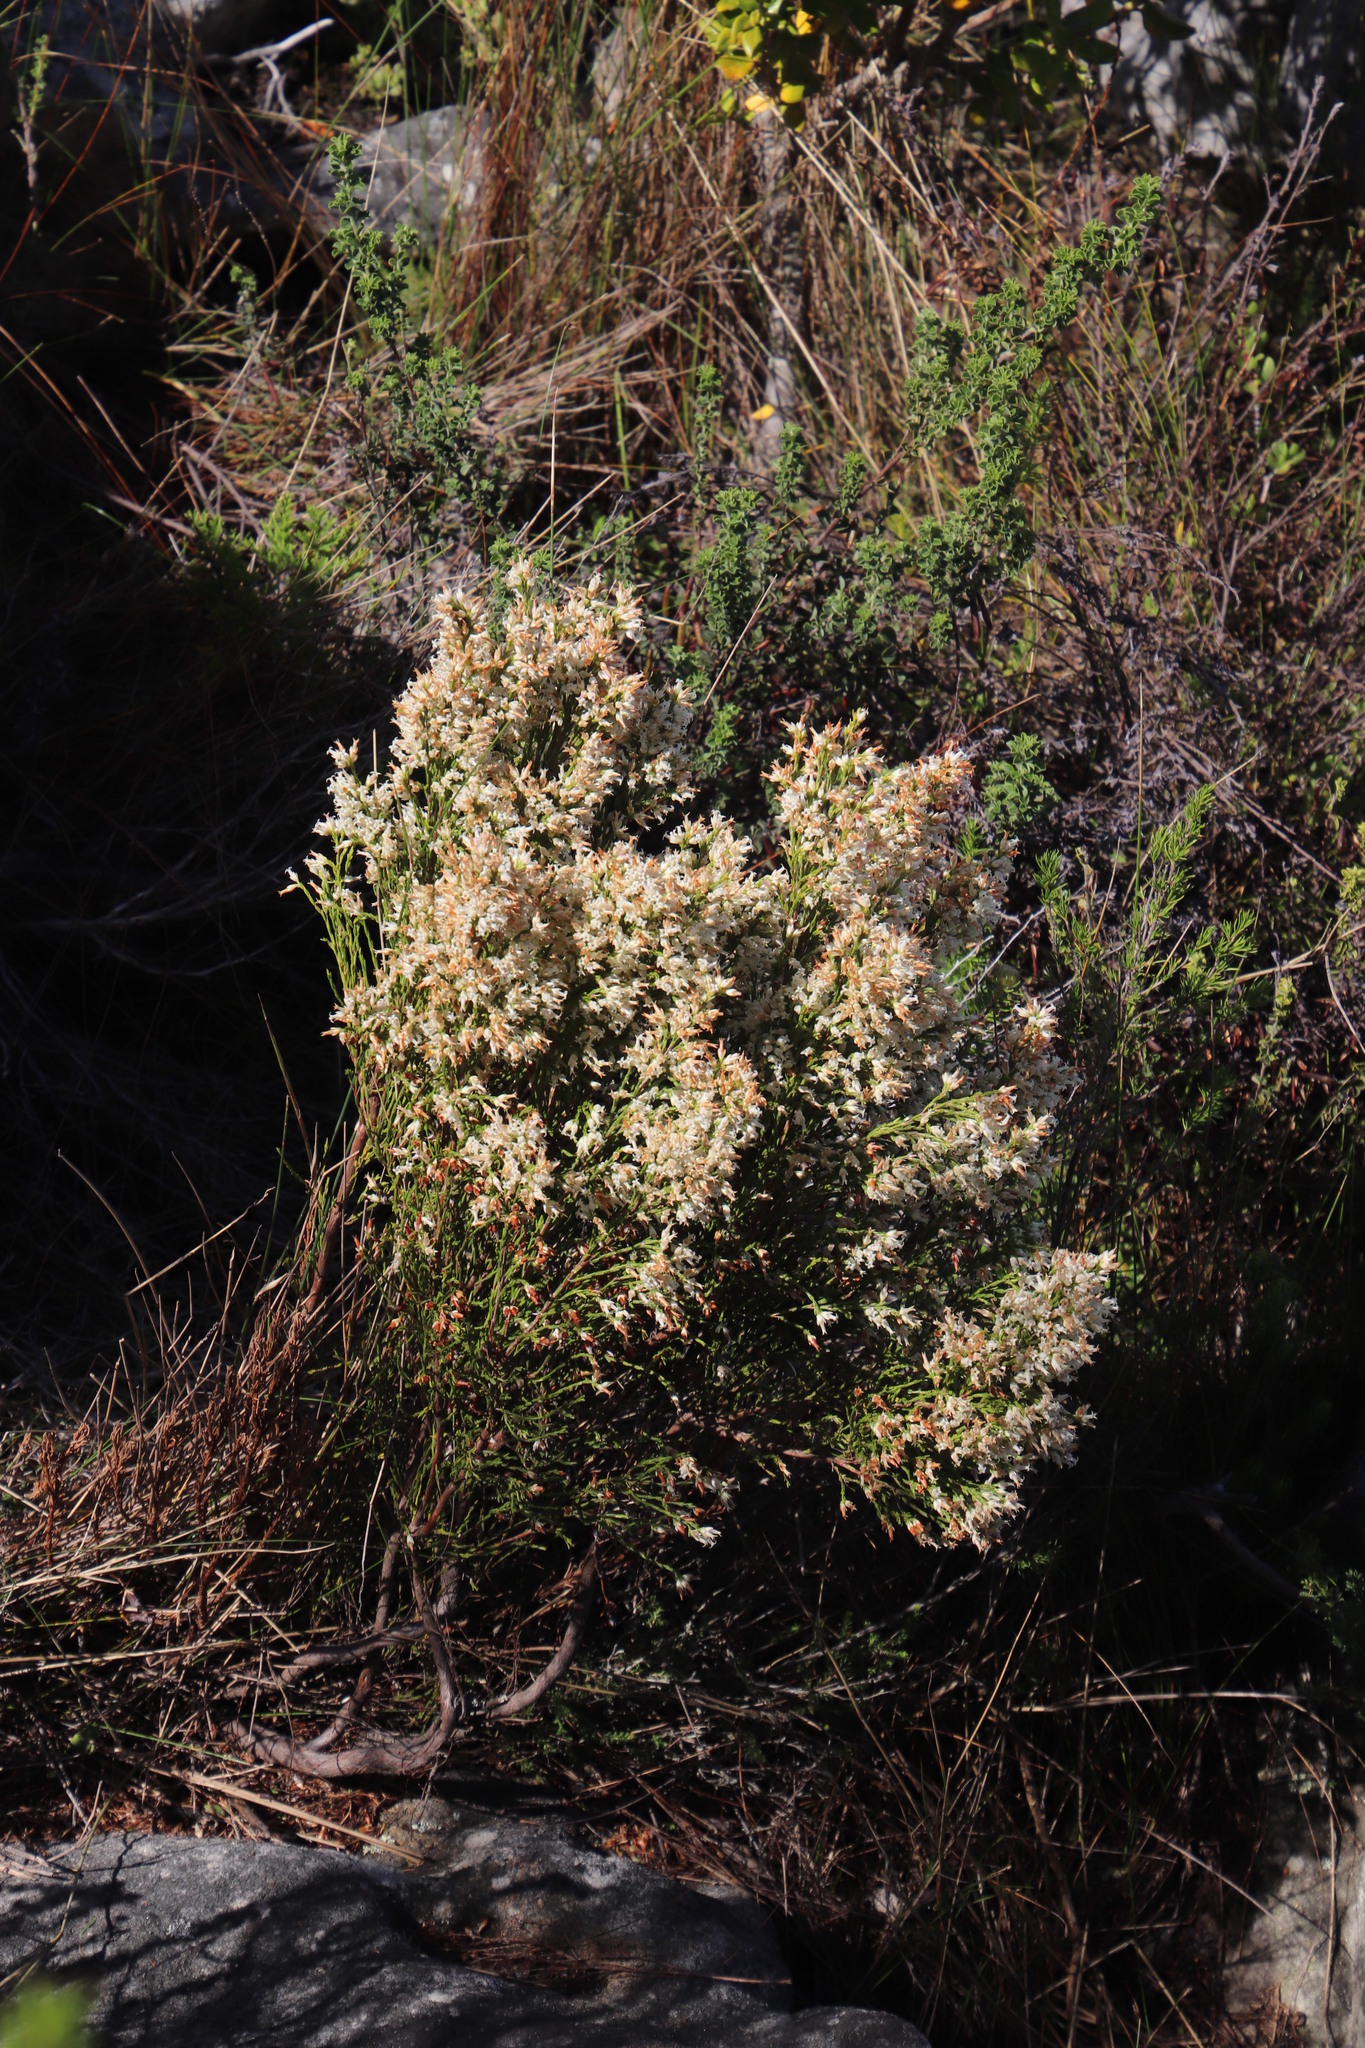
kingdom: Plantae
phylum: Tracheophyta
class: Magnoliopsida
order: Ericales
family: Ericaceae
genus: Erica
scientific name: Erica lutea
